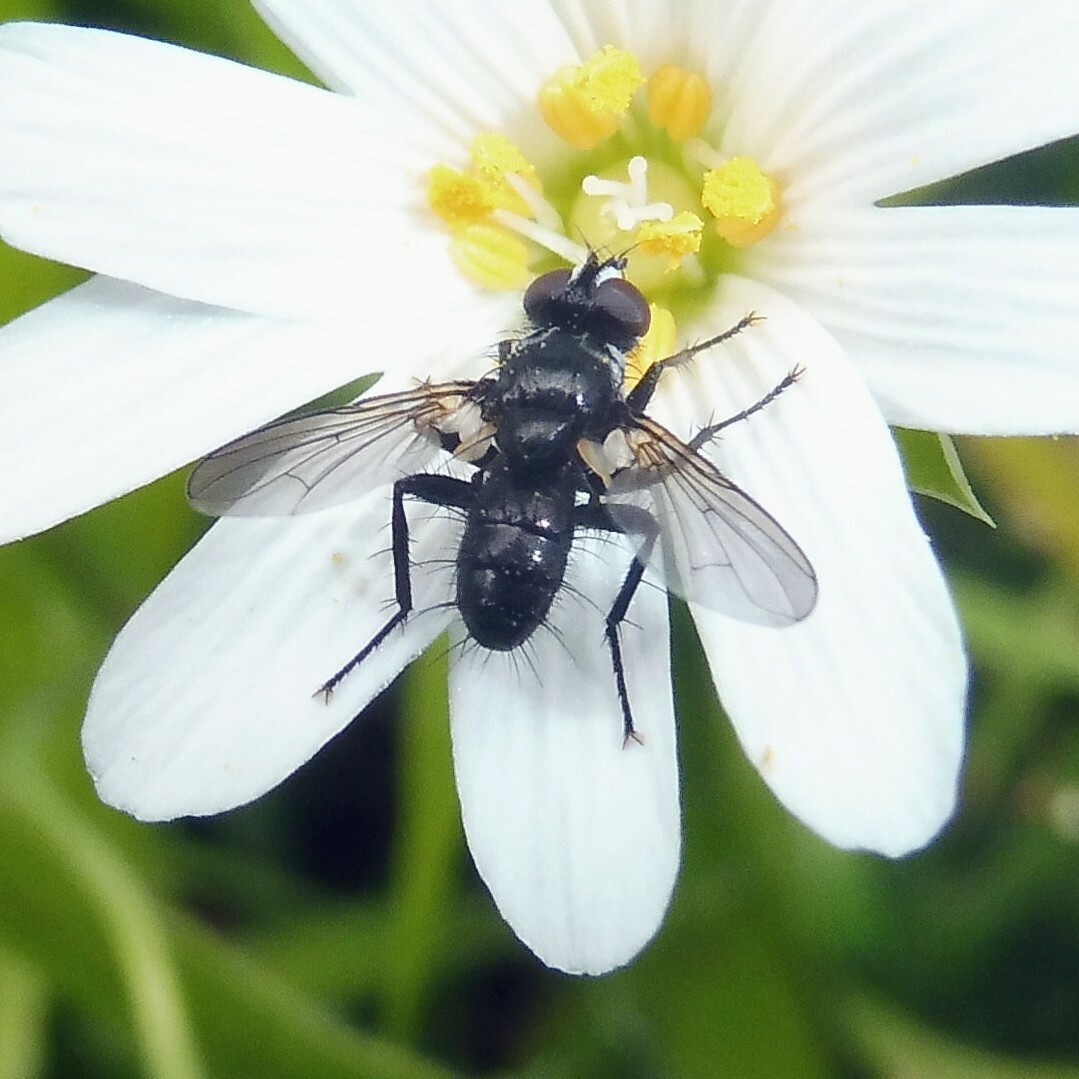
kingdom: Animalia
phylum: Arthropoda
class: Insecta
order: Diptera
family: Tachinidae
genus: Phania
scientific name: Phania funesta
